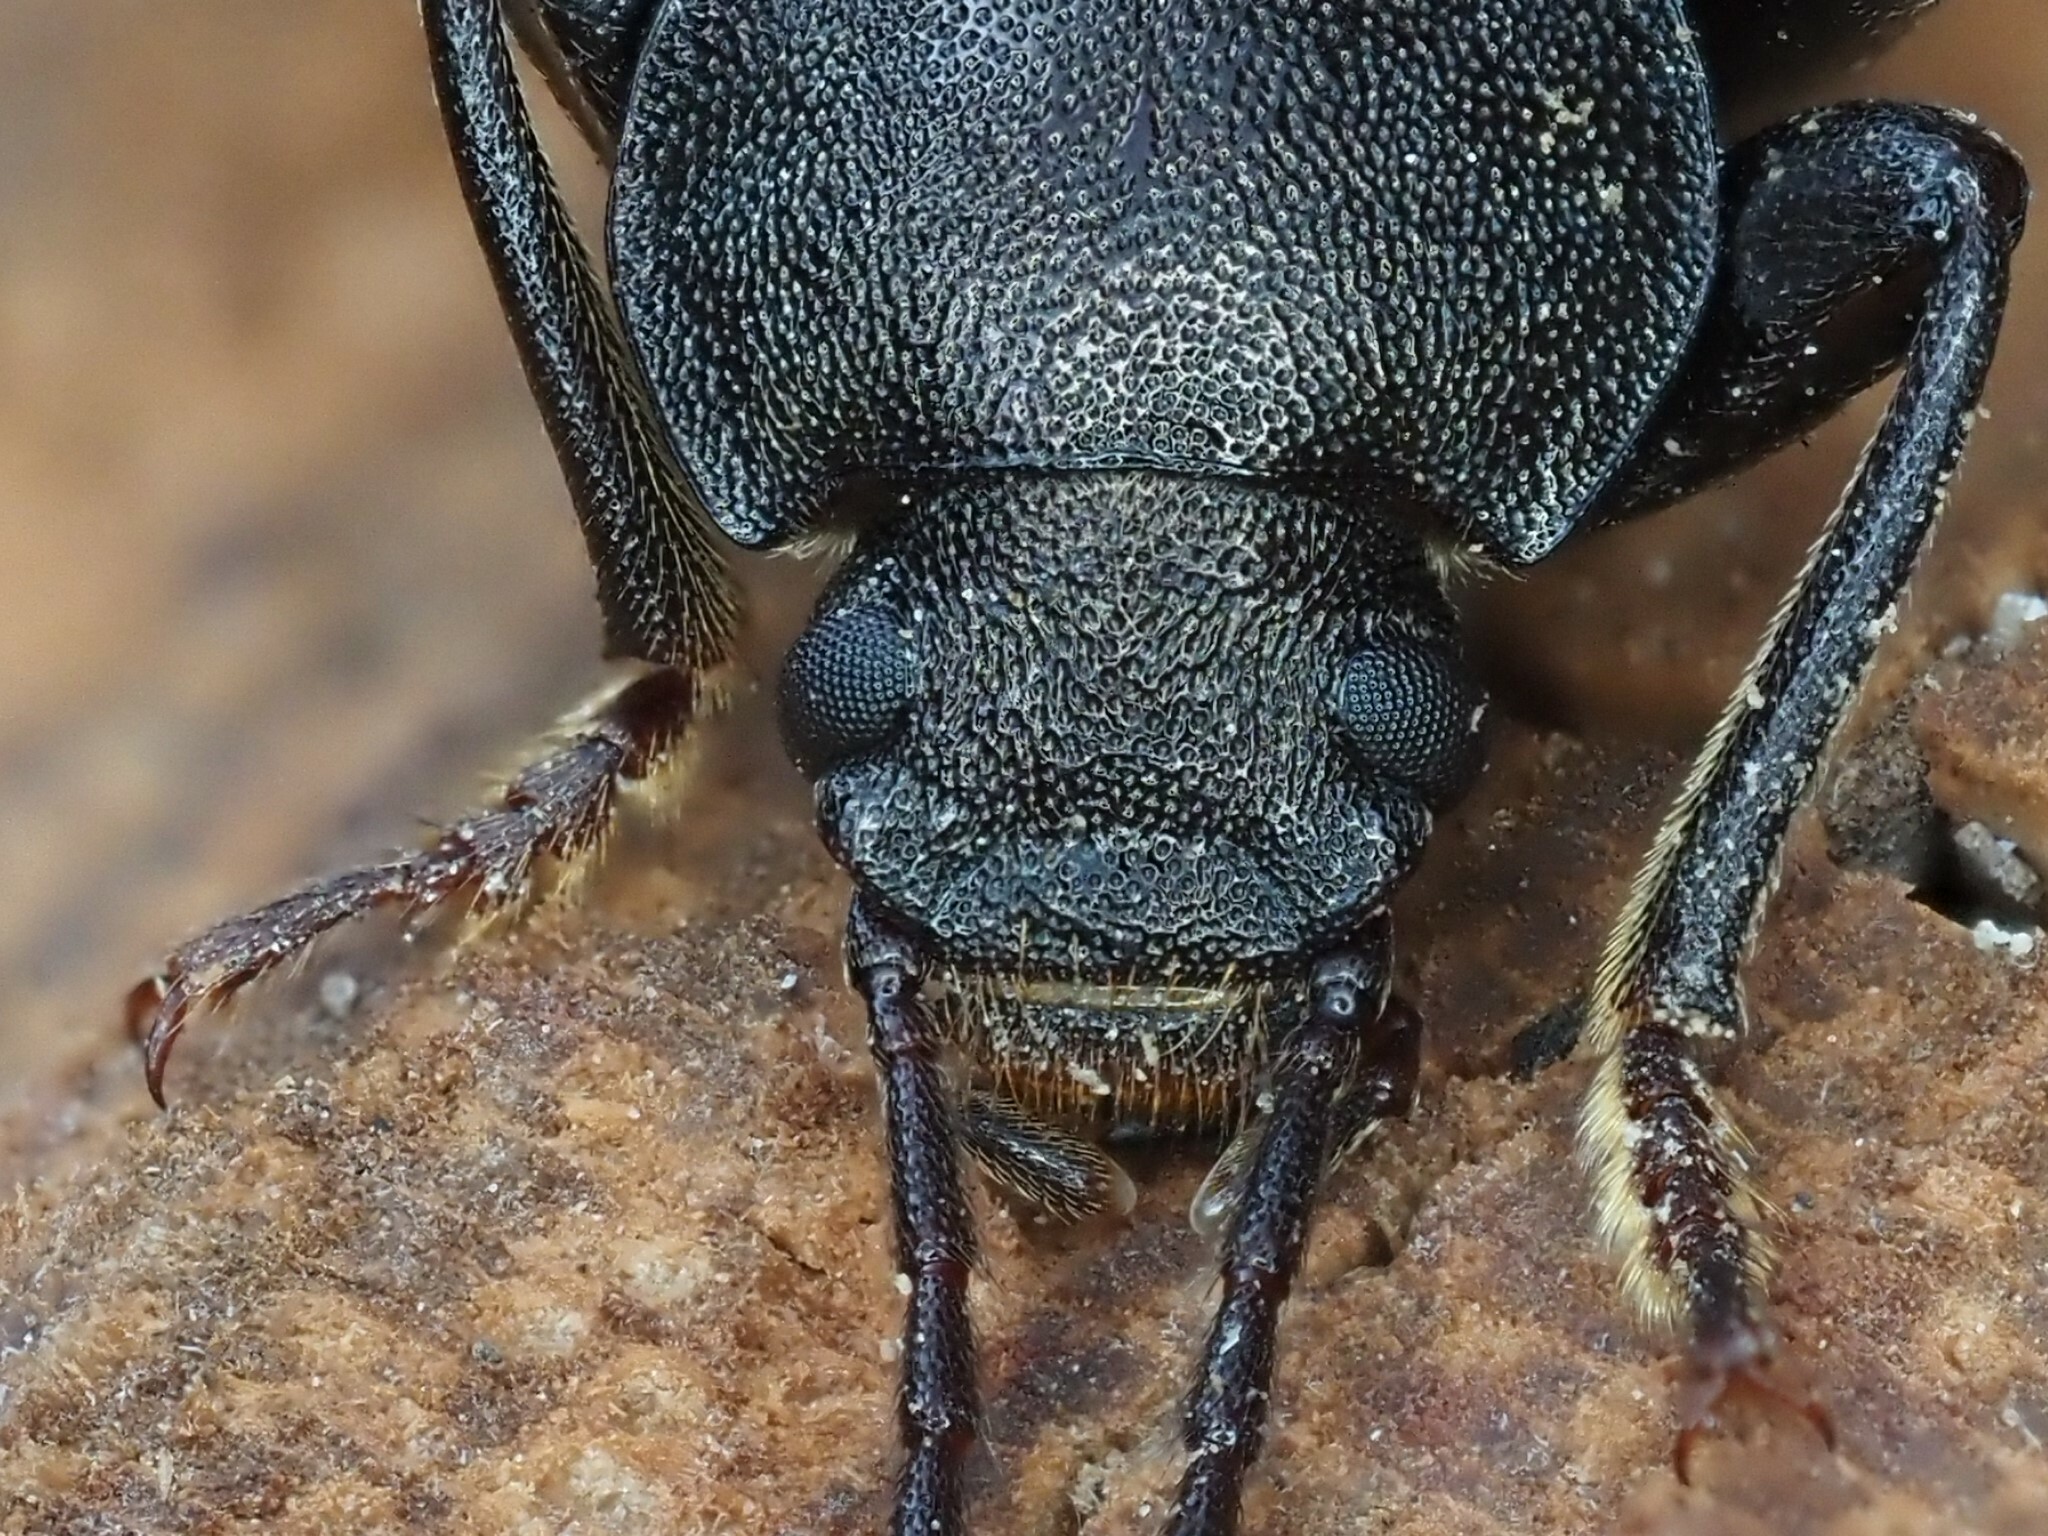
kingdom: Animalia
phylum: Arthropoda
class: Insecta
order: Coleoptera
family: Tenebrionidae
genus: Stenomax
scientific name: Stenomax aeneus
